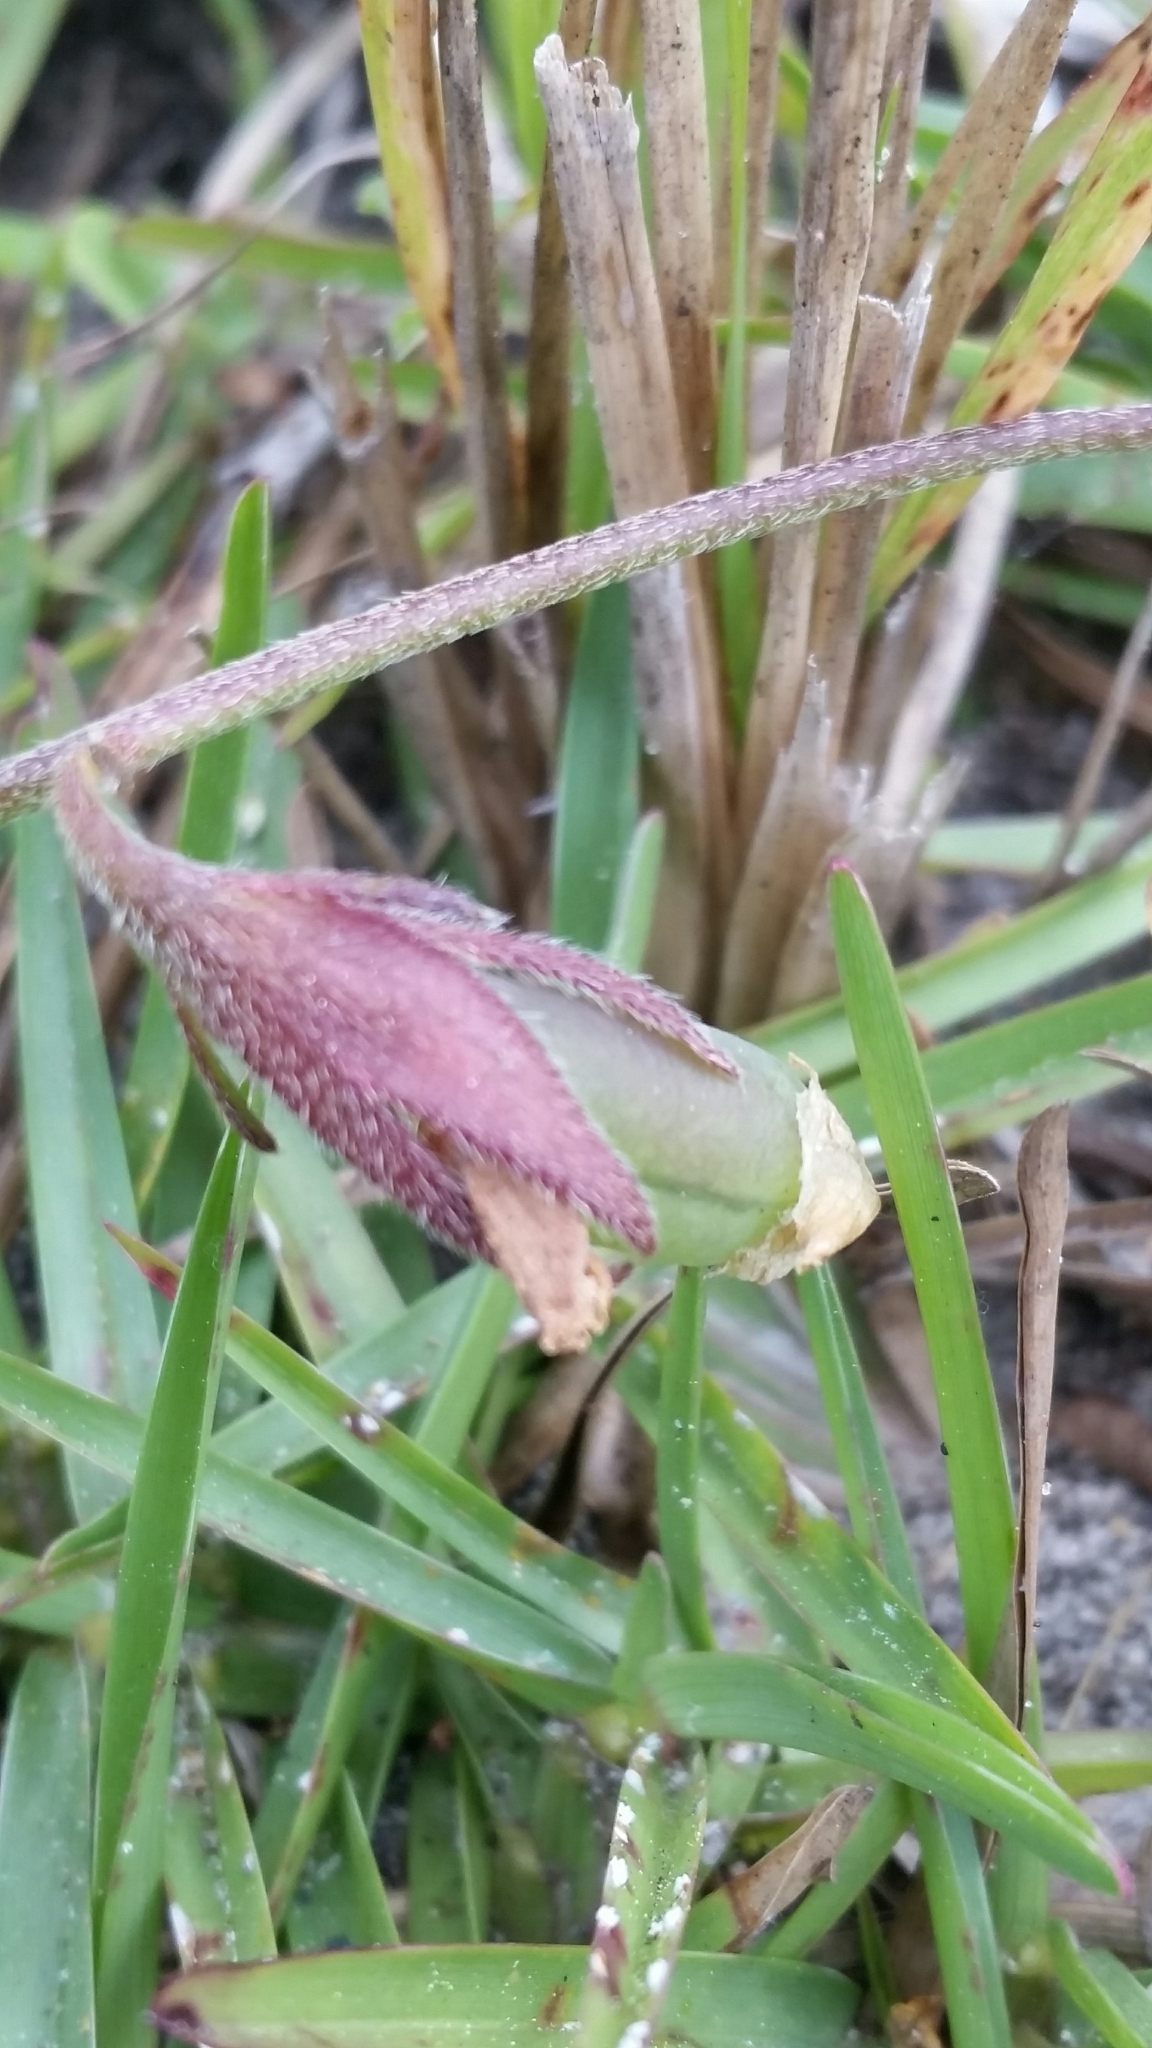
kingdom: Plantae
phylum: Tracheophyta
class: Magnoliopsida
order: Fabales
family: Fabaceae
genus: Crotalaria
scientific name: Crotalaria rotundifolia
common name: Prostrate rattlebox
